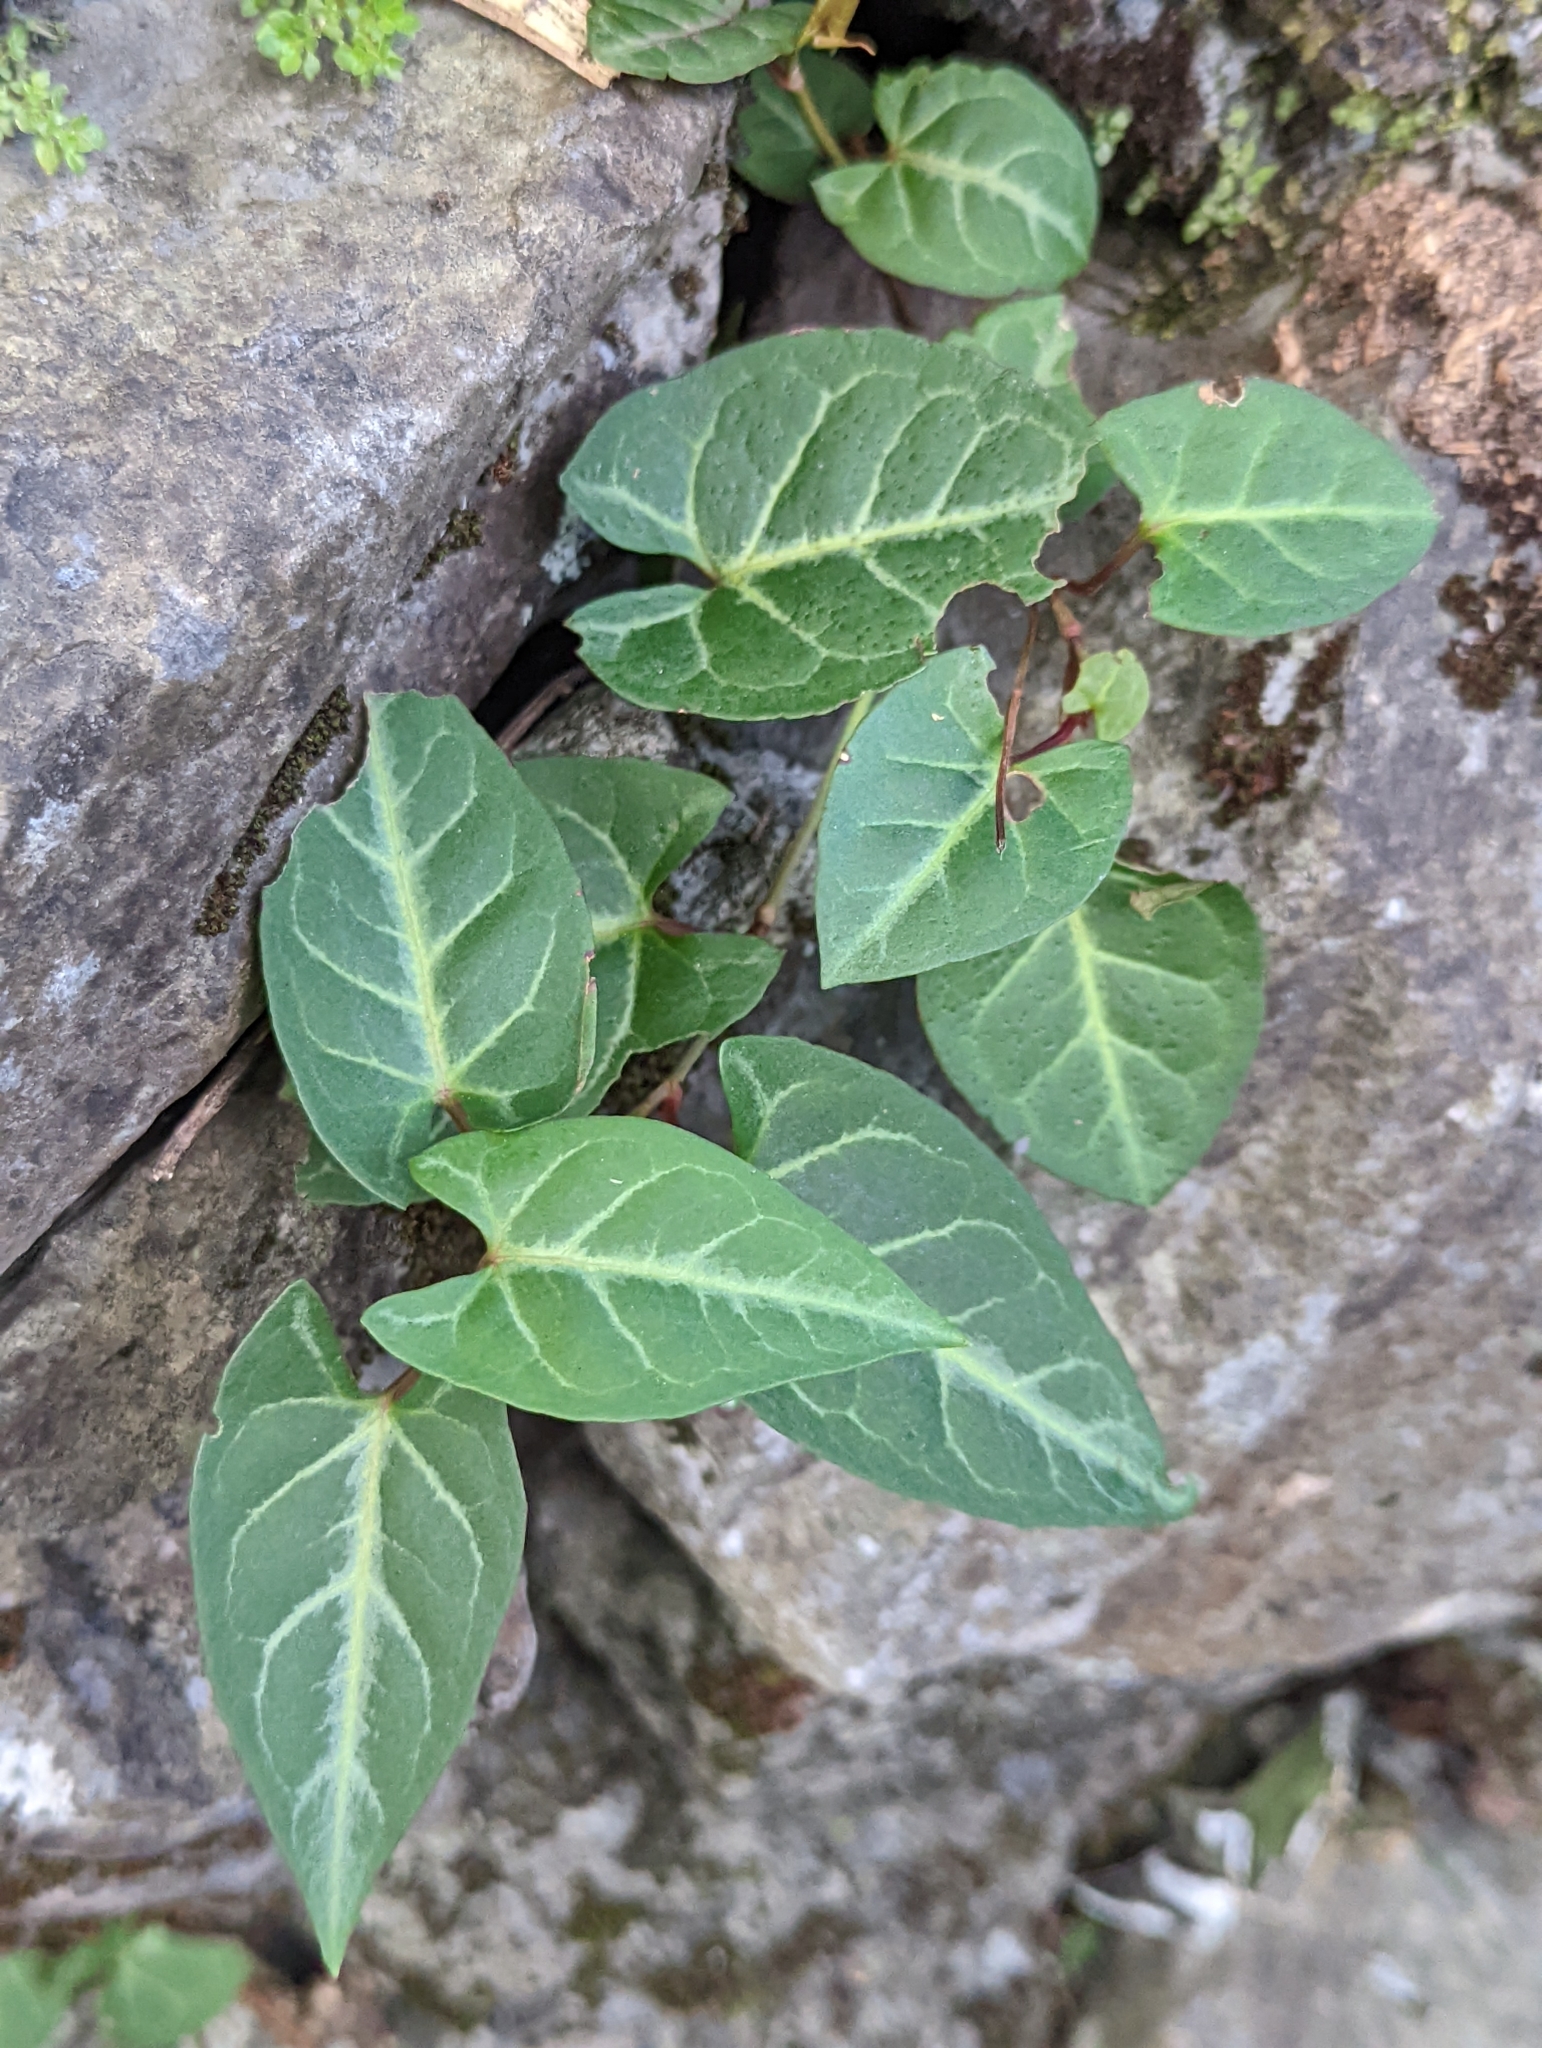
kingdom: Plantae
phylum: Tracheophyta
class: Magnoliopsida
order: Caryophyllales
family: Polygonaceae
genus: Reynoutria
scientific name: Reynoutria multiflora
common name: Chinese fleeceflower
